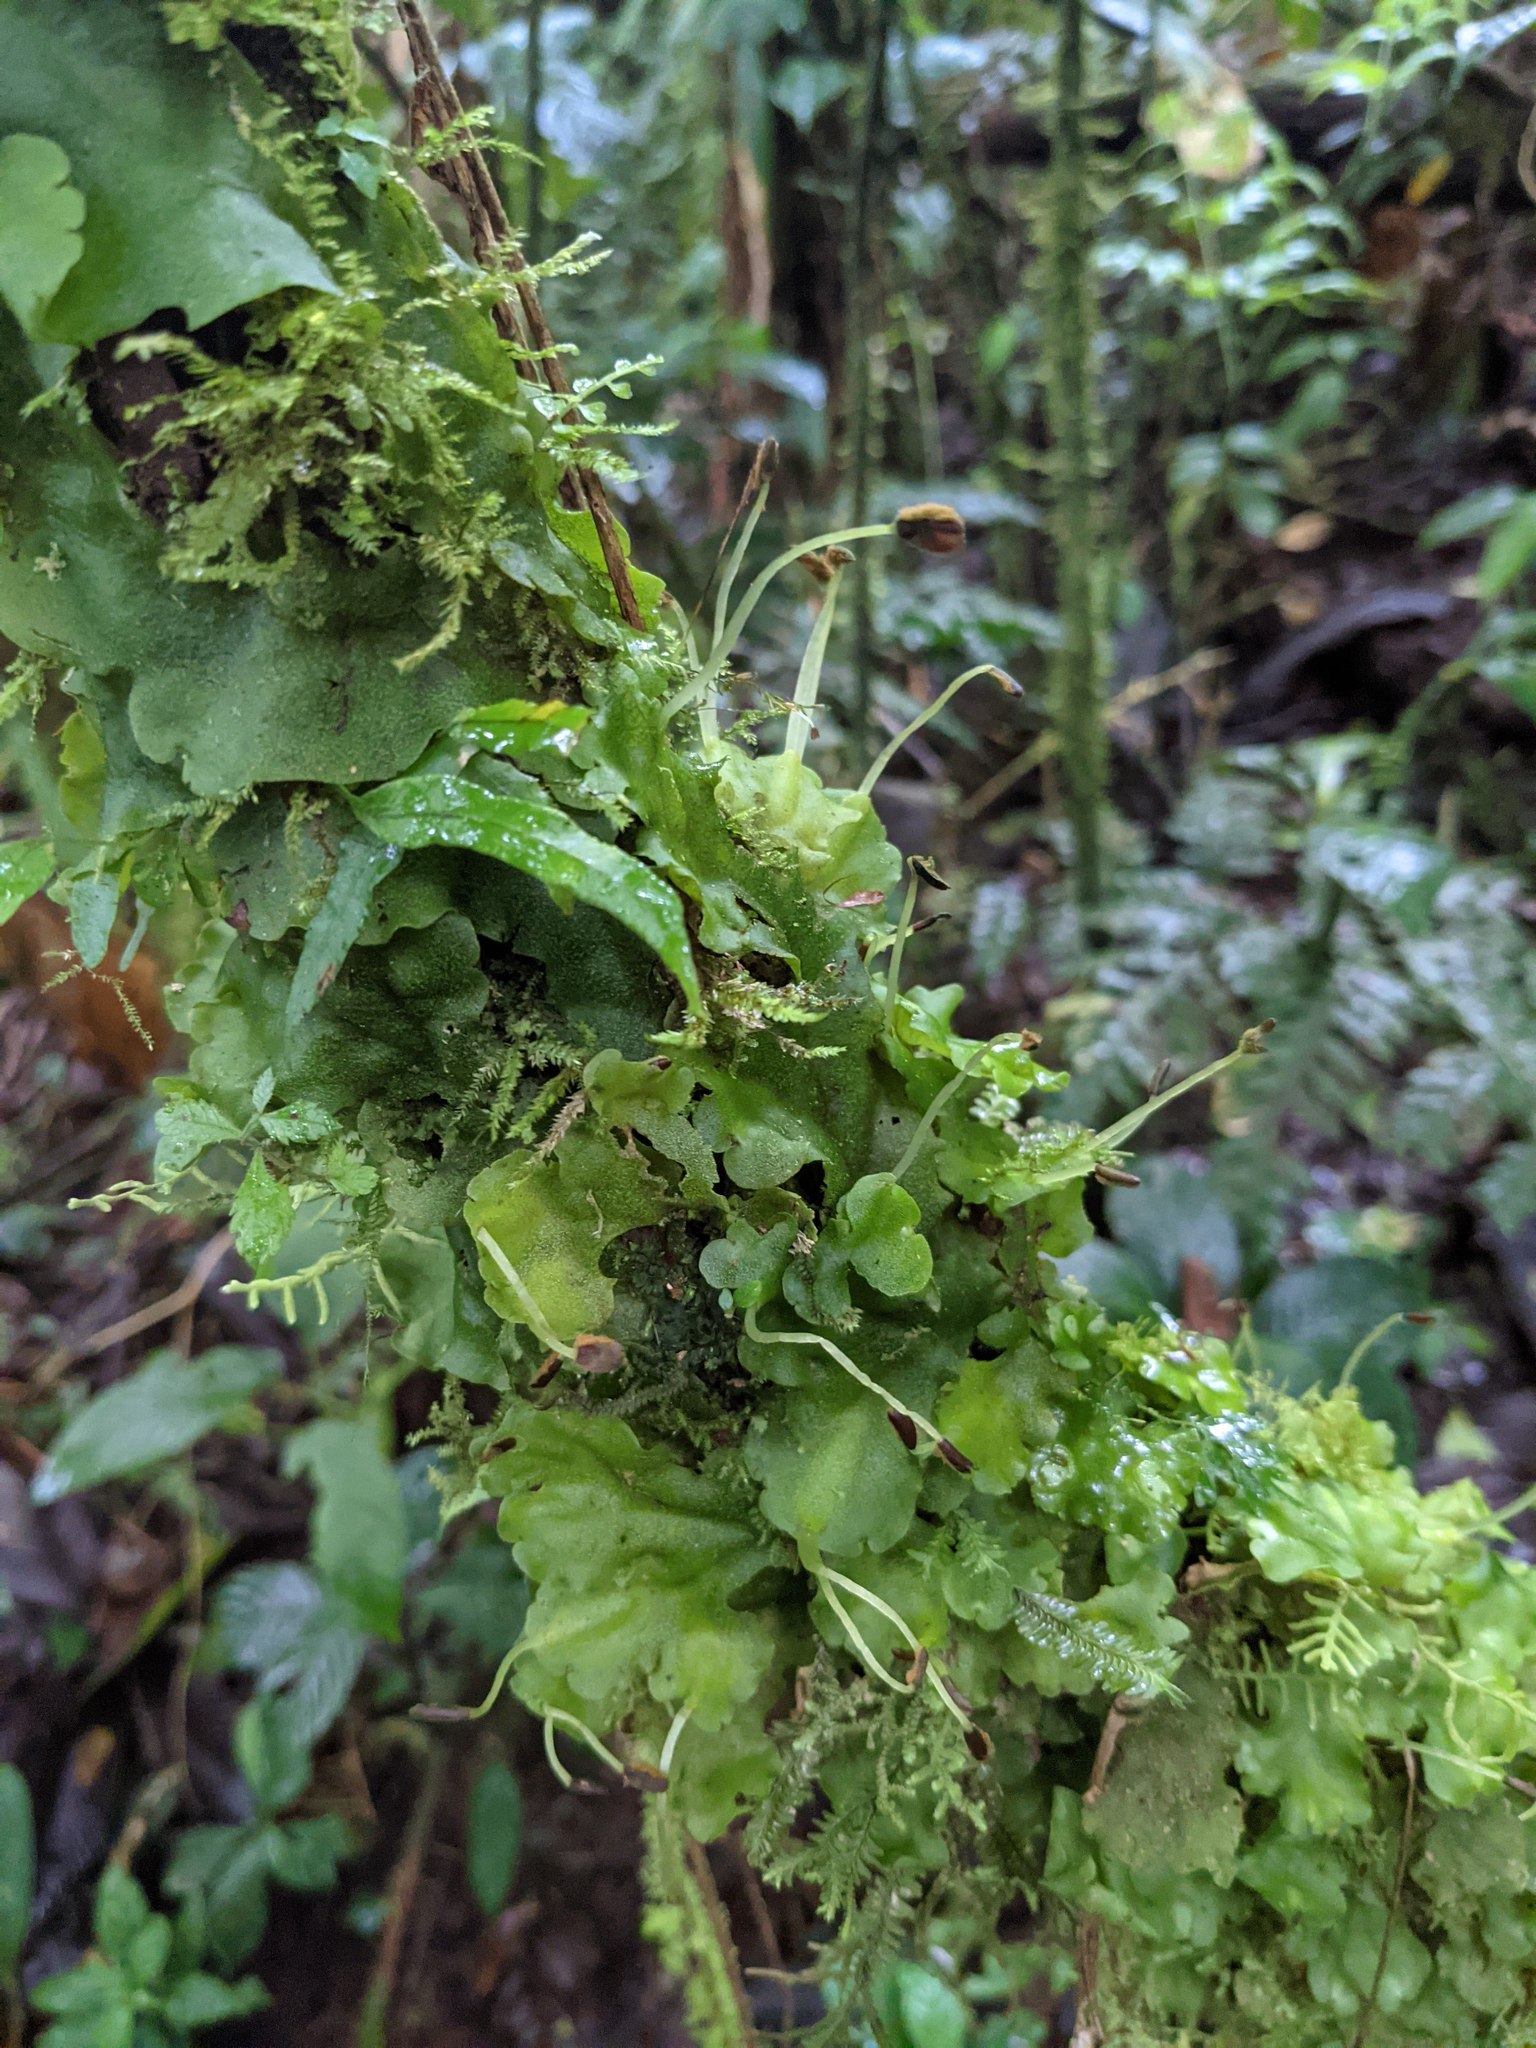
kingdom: Plantae
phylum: Marchantiophyta
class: Marchantiopsida
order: Marchantiales
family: Monocleaceae
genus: Monoclea
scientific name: Monoclea gottschei
